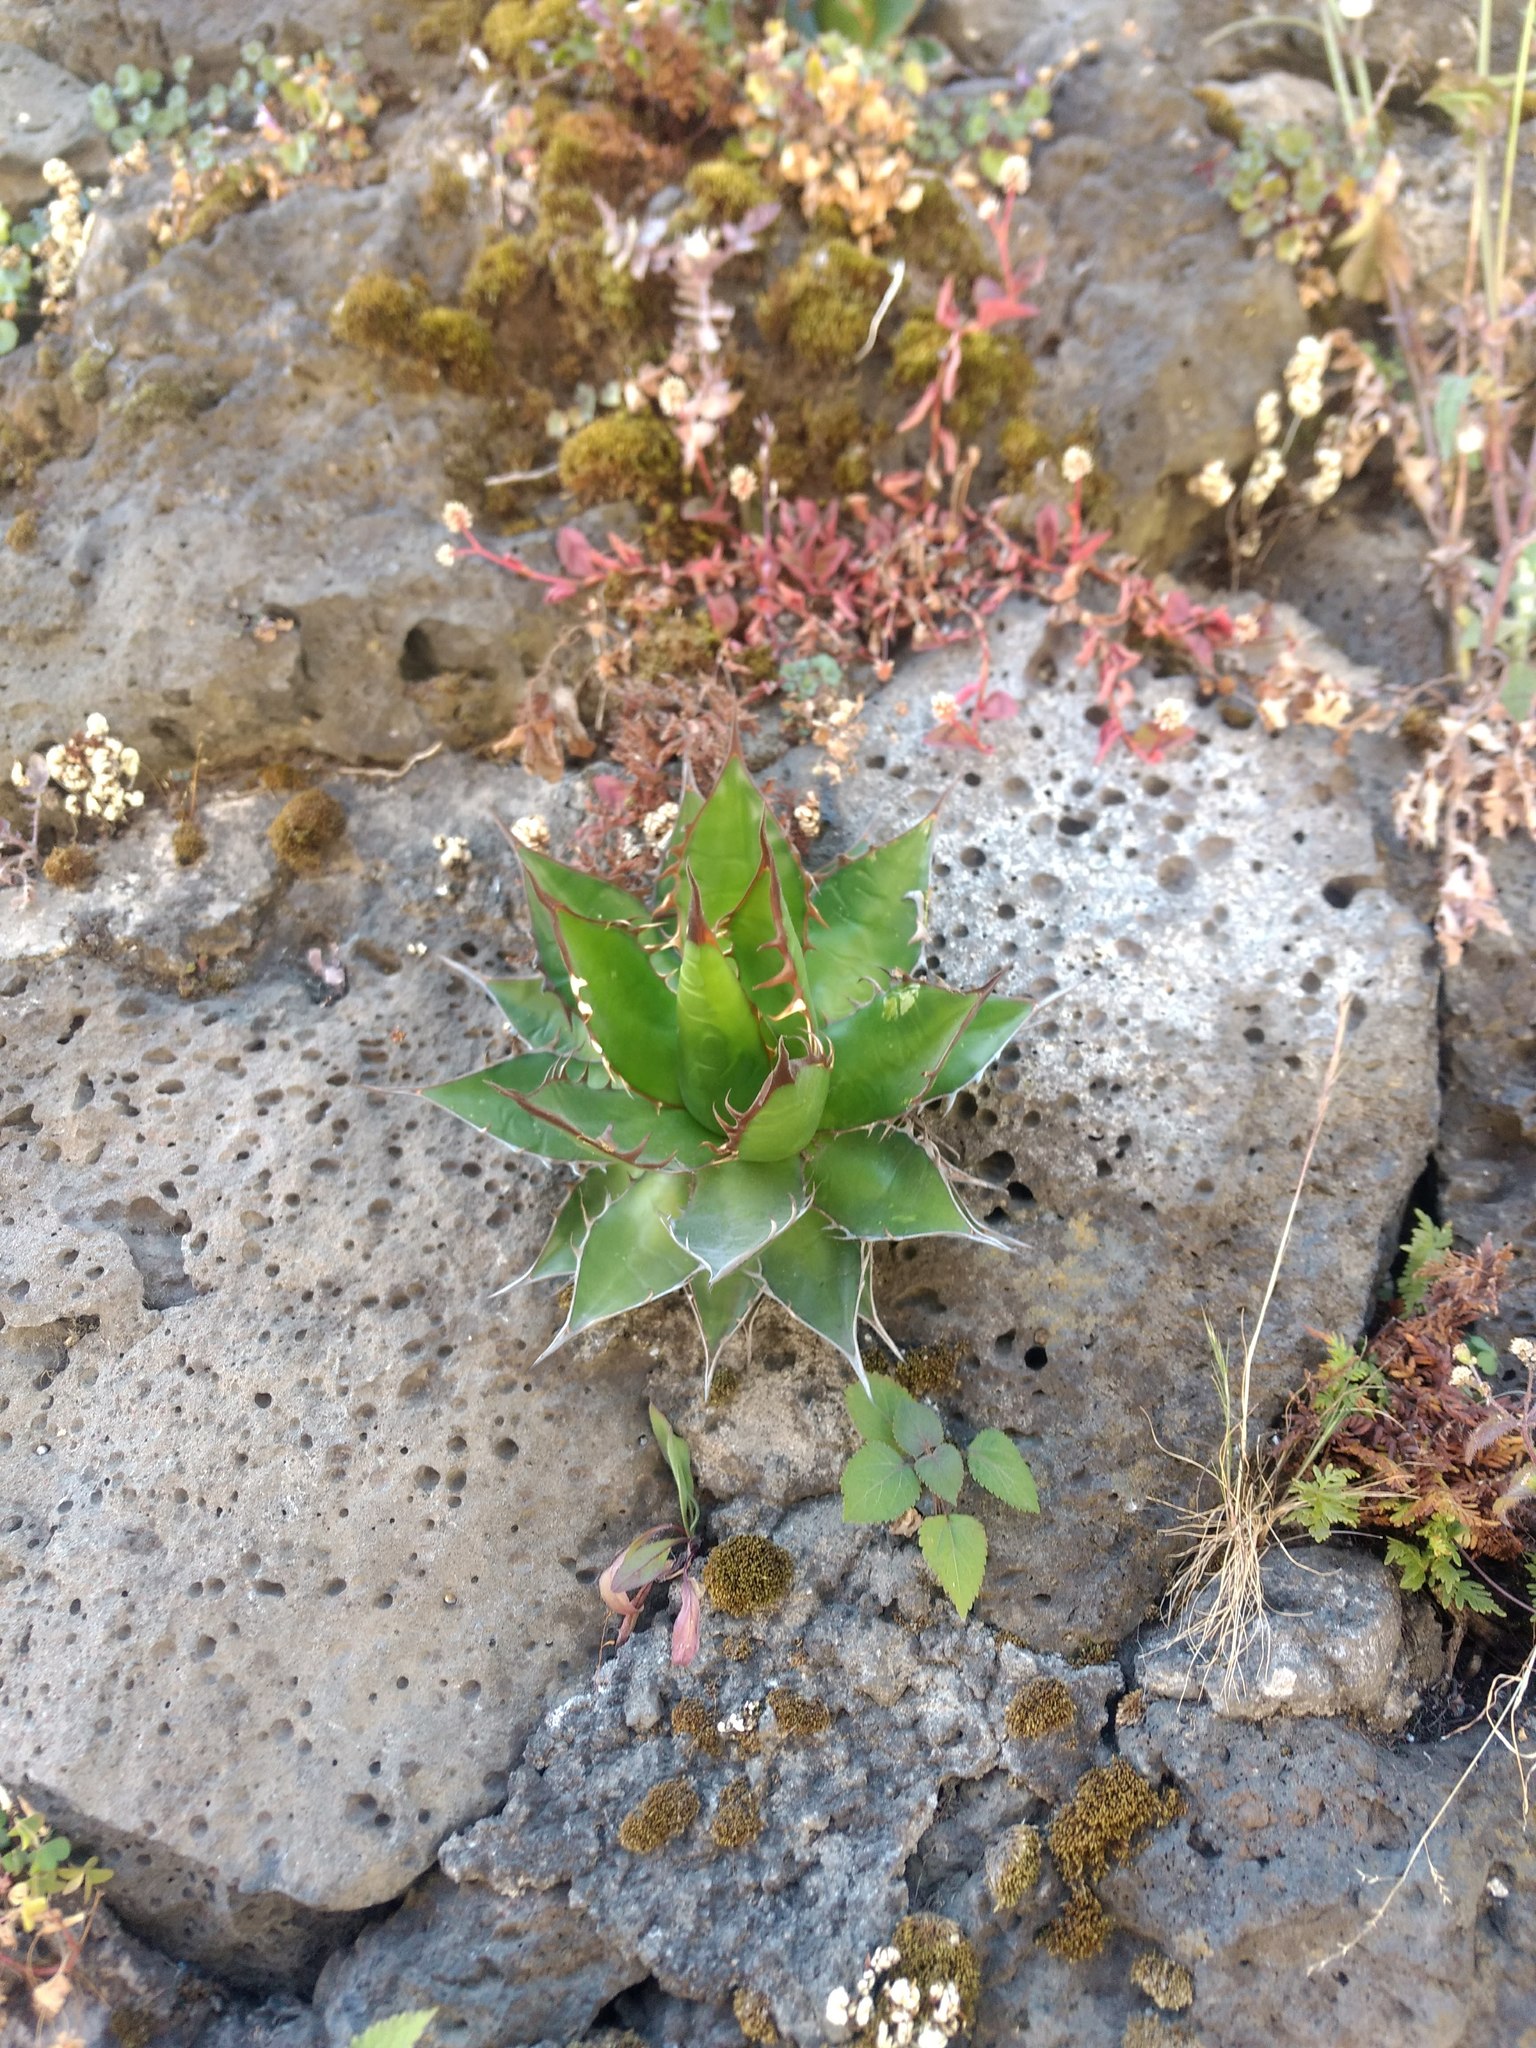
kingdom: Plantae
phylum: Tracheophyta
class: Liliopsida
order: Asparagales
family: Asparagaceae
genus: Agave
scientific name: Agave horrida
